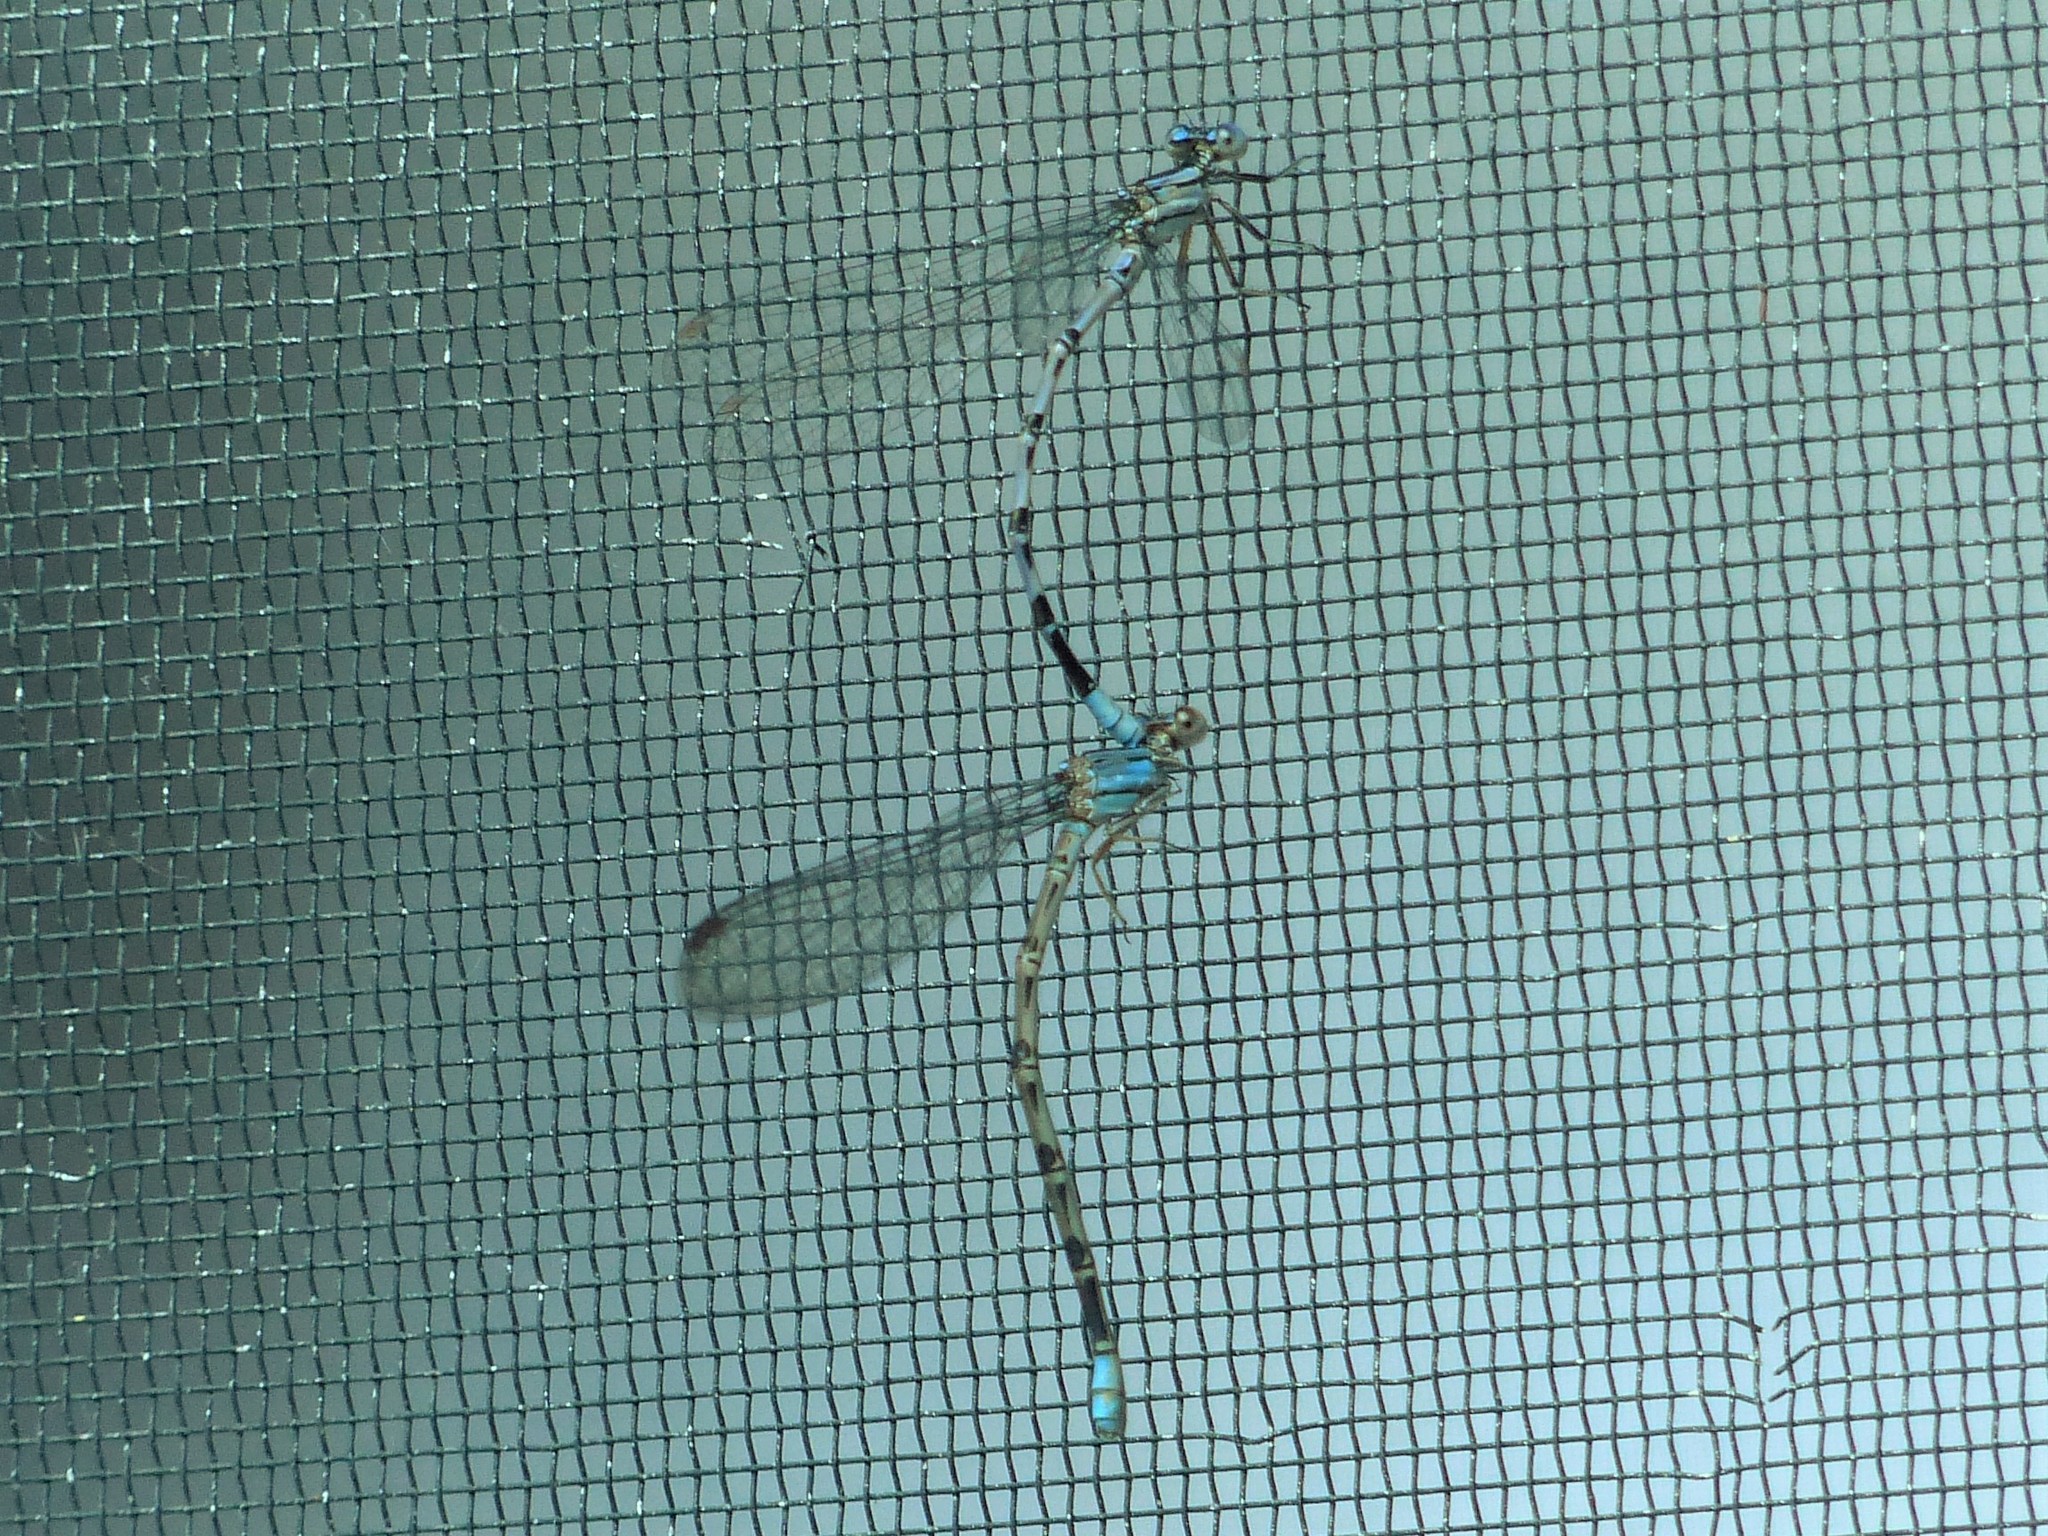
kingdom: Animalia
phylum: Arthropoda
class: Insecta
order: Odonata
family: Coenagrionidae
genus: Argia
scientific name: Argia funebris
